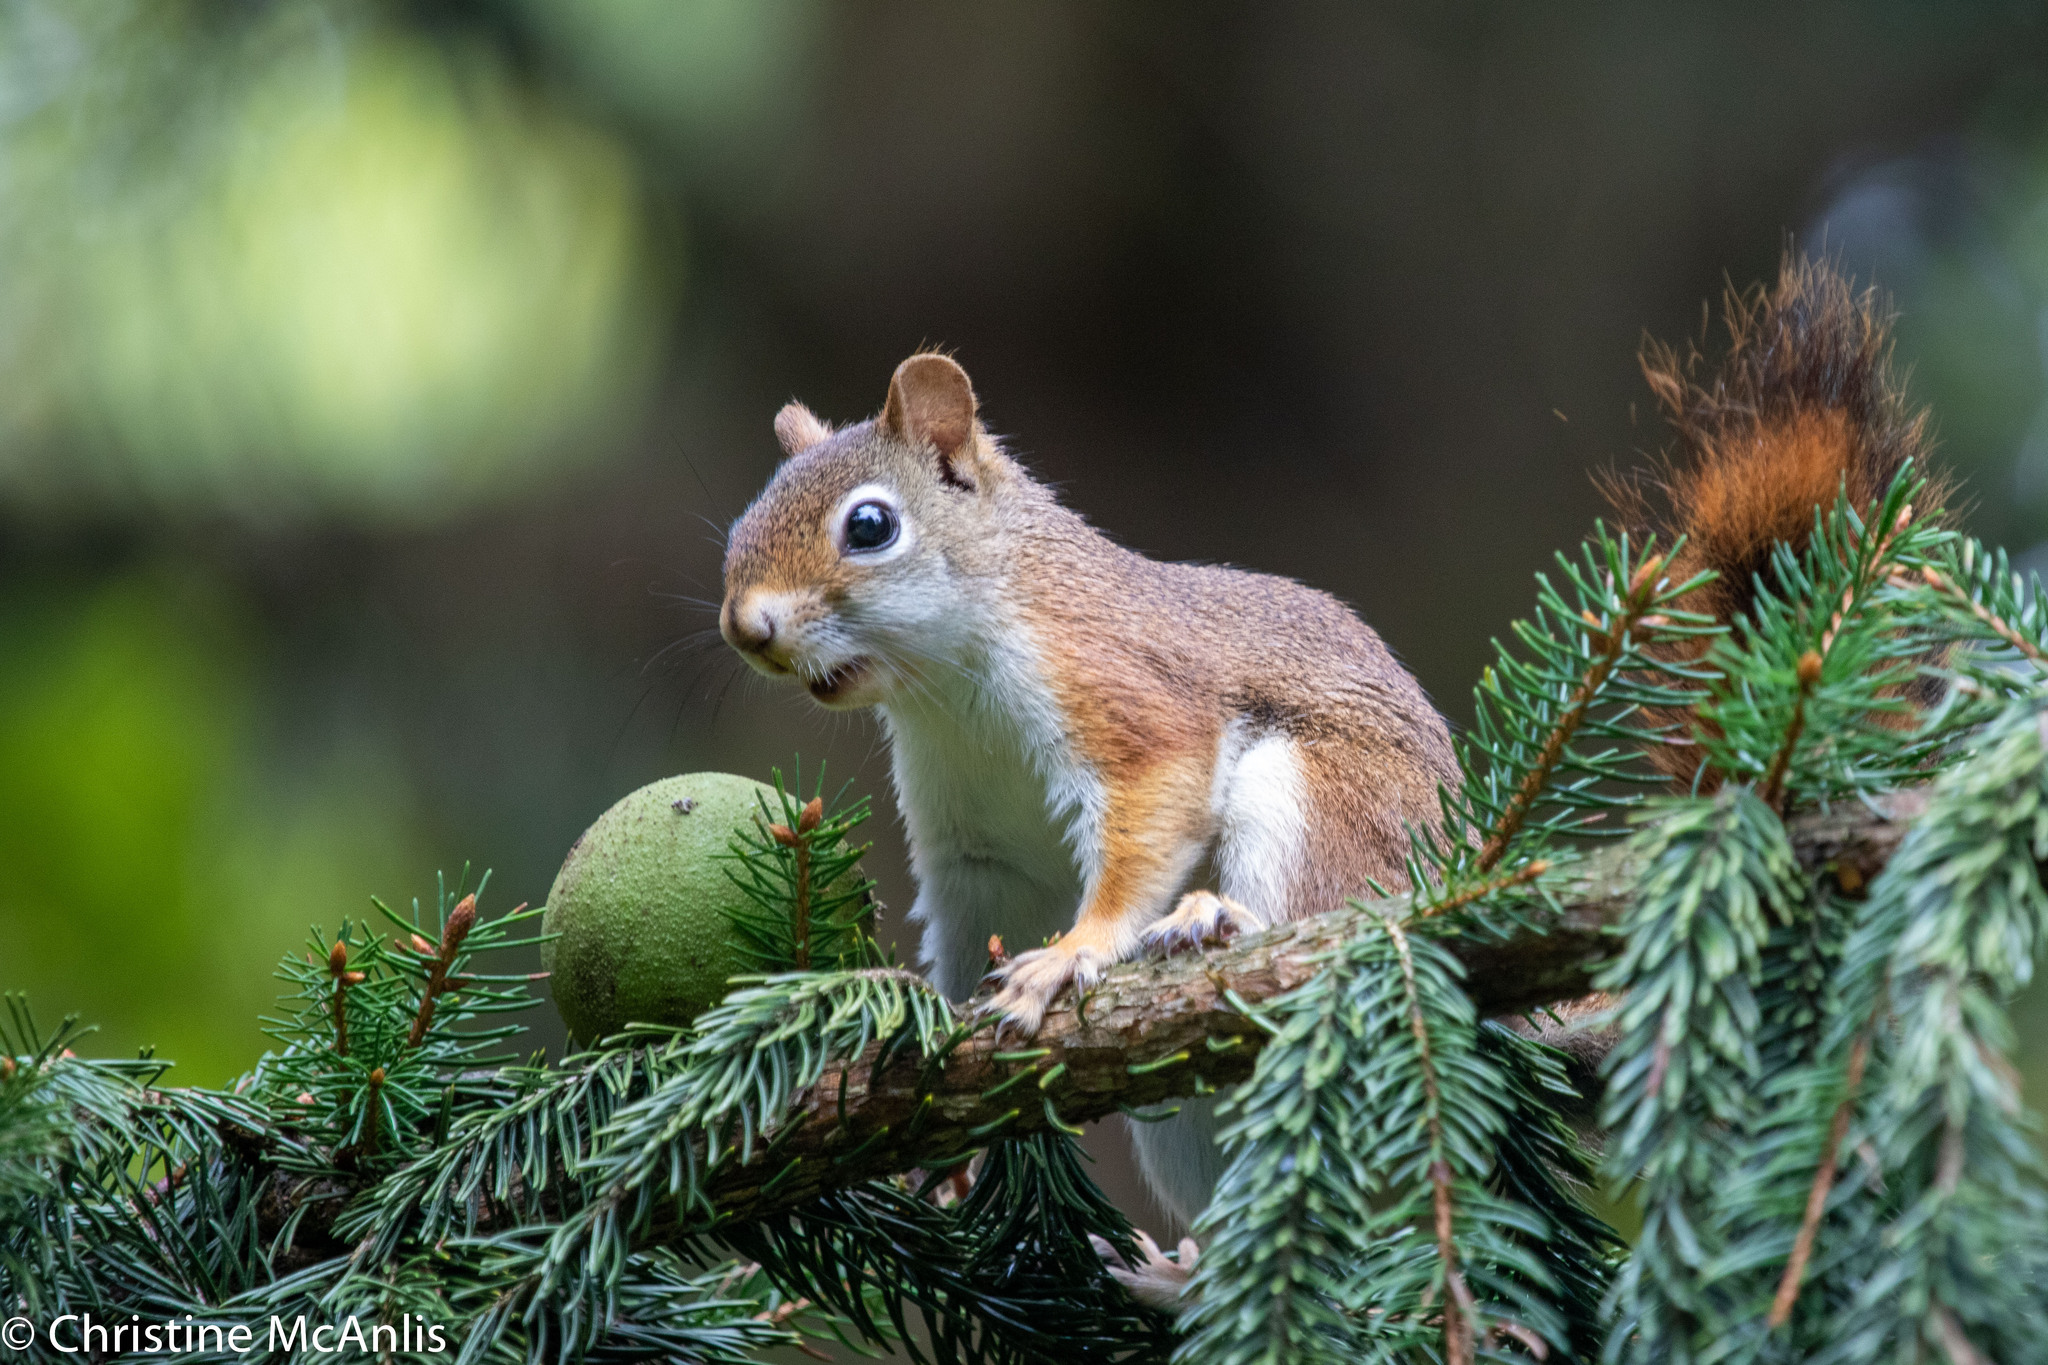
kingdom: Animalia
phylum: Chordata
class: Mammalia
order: Rodentia
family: Sciuridae
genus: Tamiasciurus
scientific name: Tamiasciurus hudsonicus
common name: Red squirrel
